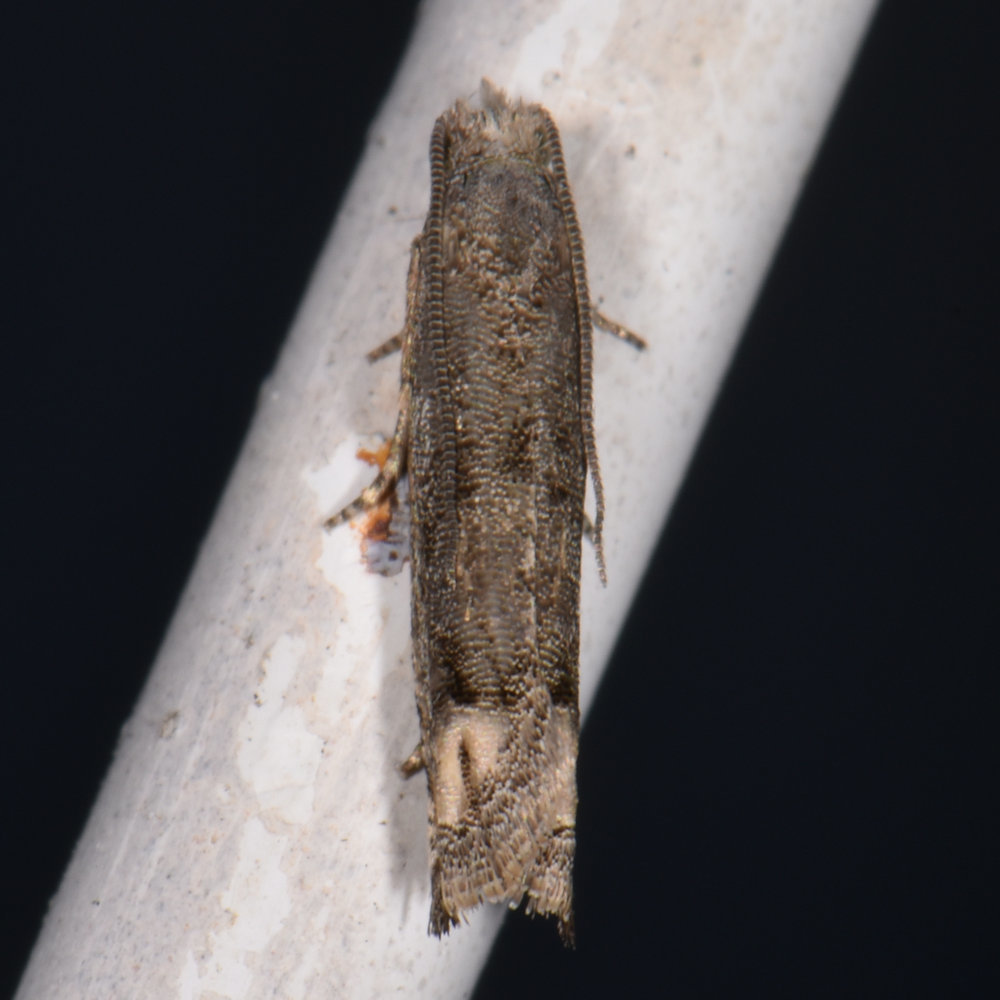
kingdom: Animalia
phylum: Arthropoda
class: Insecta
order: Lepidoptera
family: Tortricidae
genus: Epiblema
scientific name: Epiblema strenuana
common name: Ragweed borer moth
